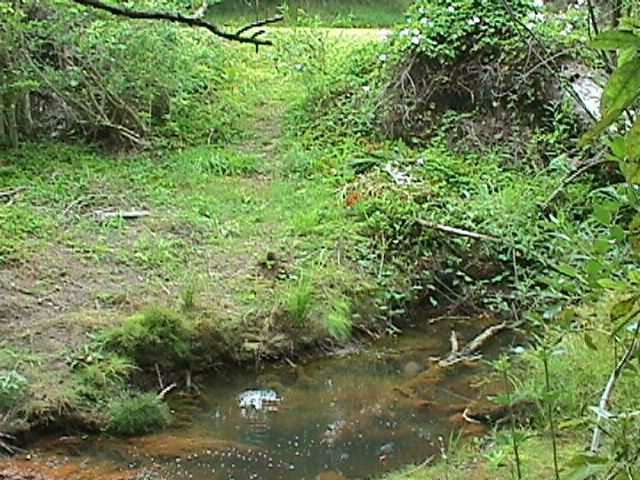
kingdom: Plantae
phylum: Tracheophyta
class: Magnoliopsida
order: Malpighiales
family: Salicaceae
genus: Salix
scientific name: Salix fragilis
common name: Crack willow
